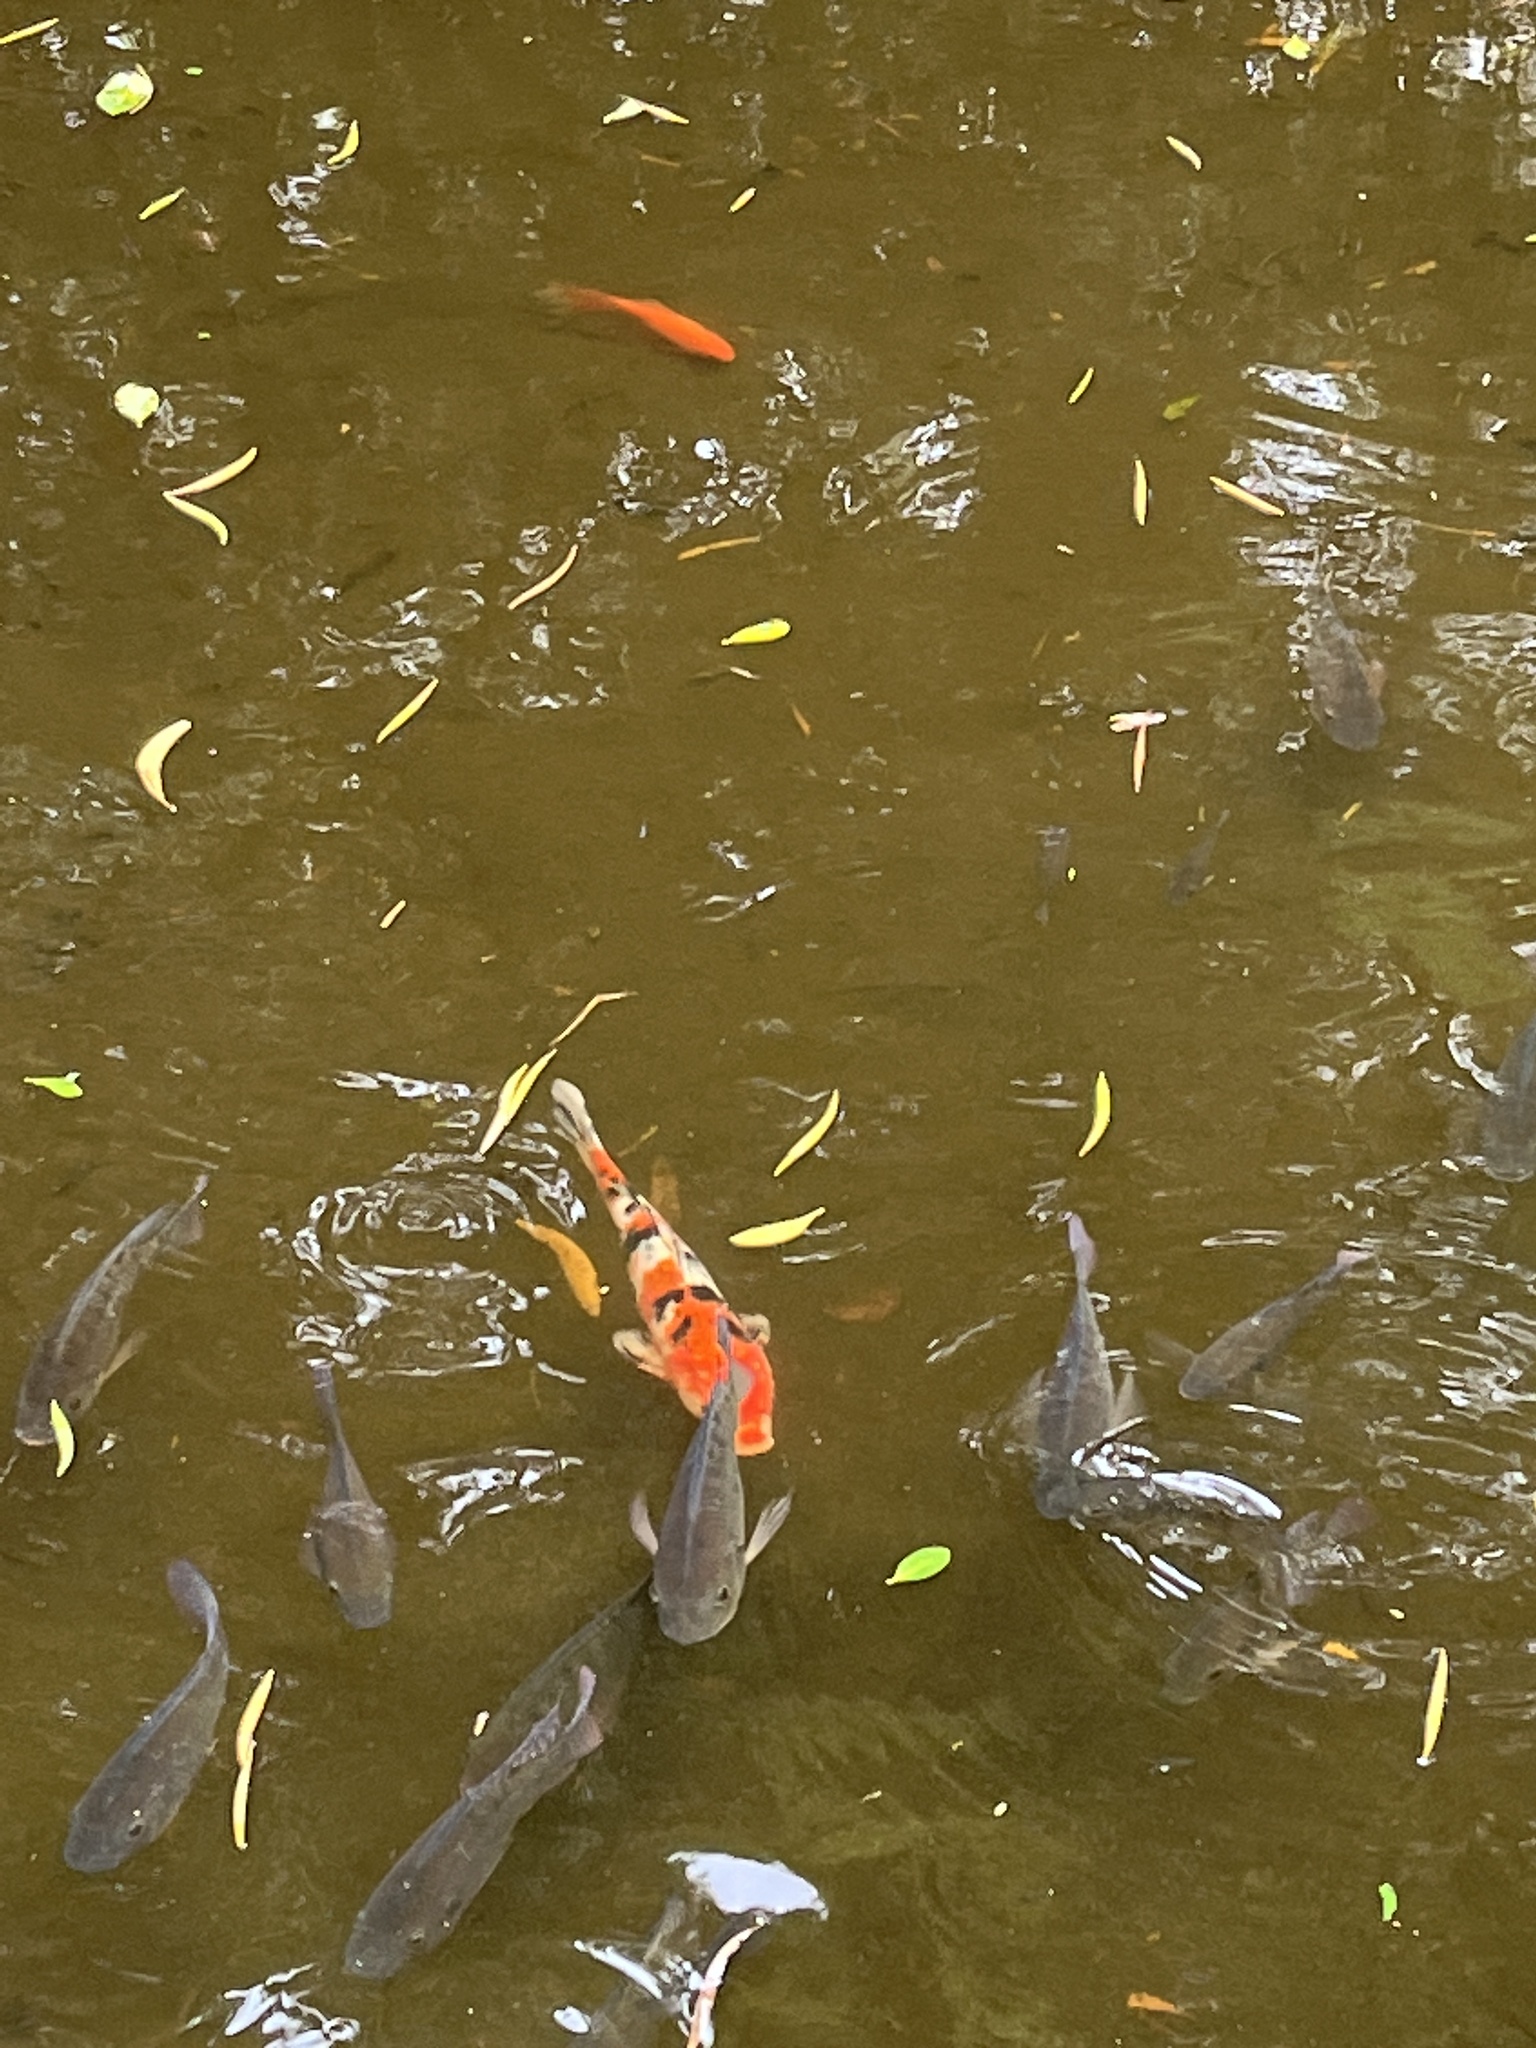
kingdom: Animalia
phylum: Chordata
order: Cypriniformes
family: Cyprinidae
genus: Cyprinus
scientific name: Cyprinus rubrofuscus
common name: Koi
